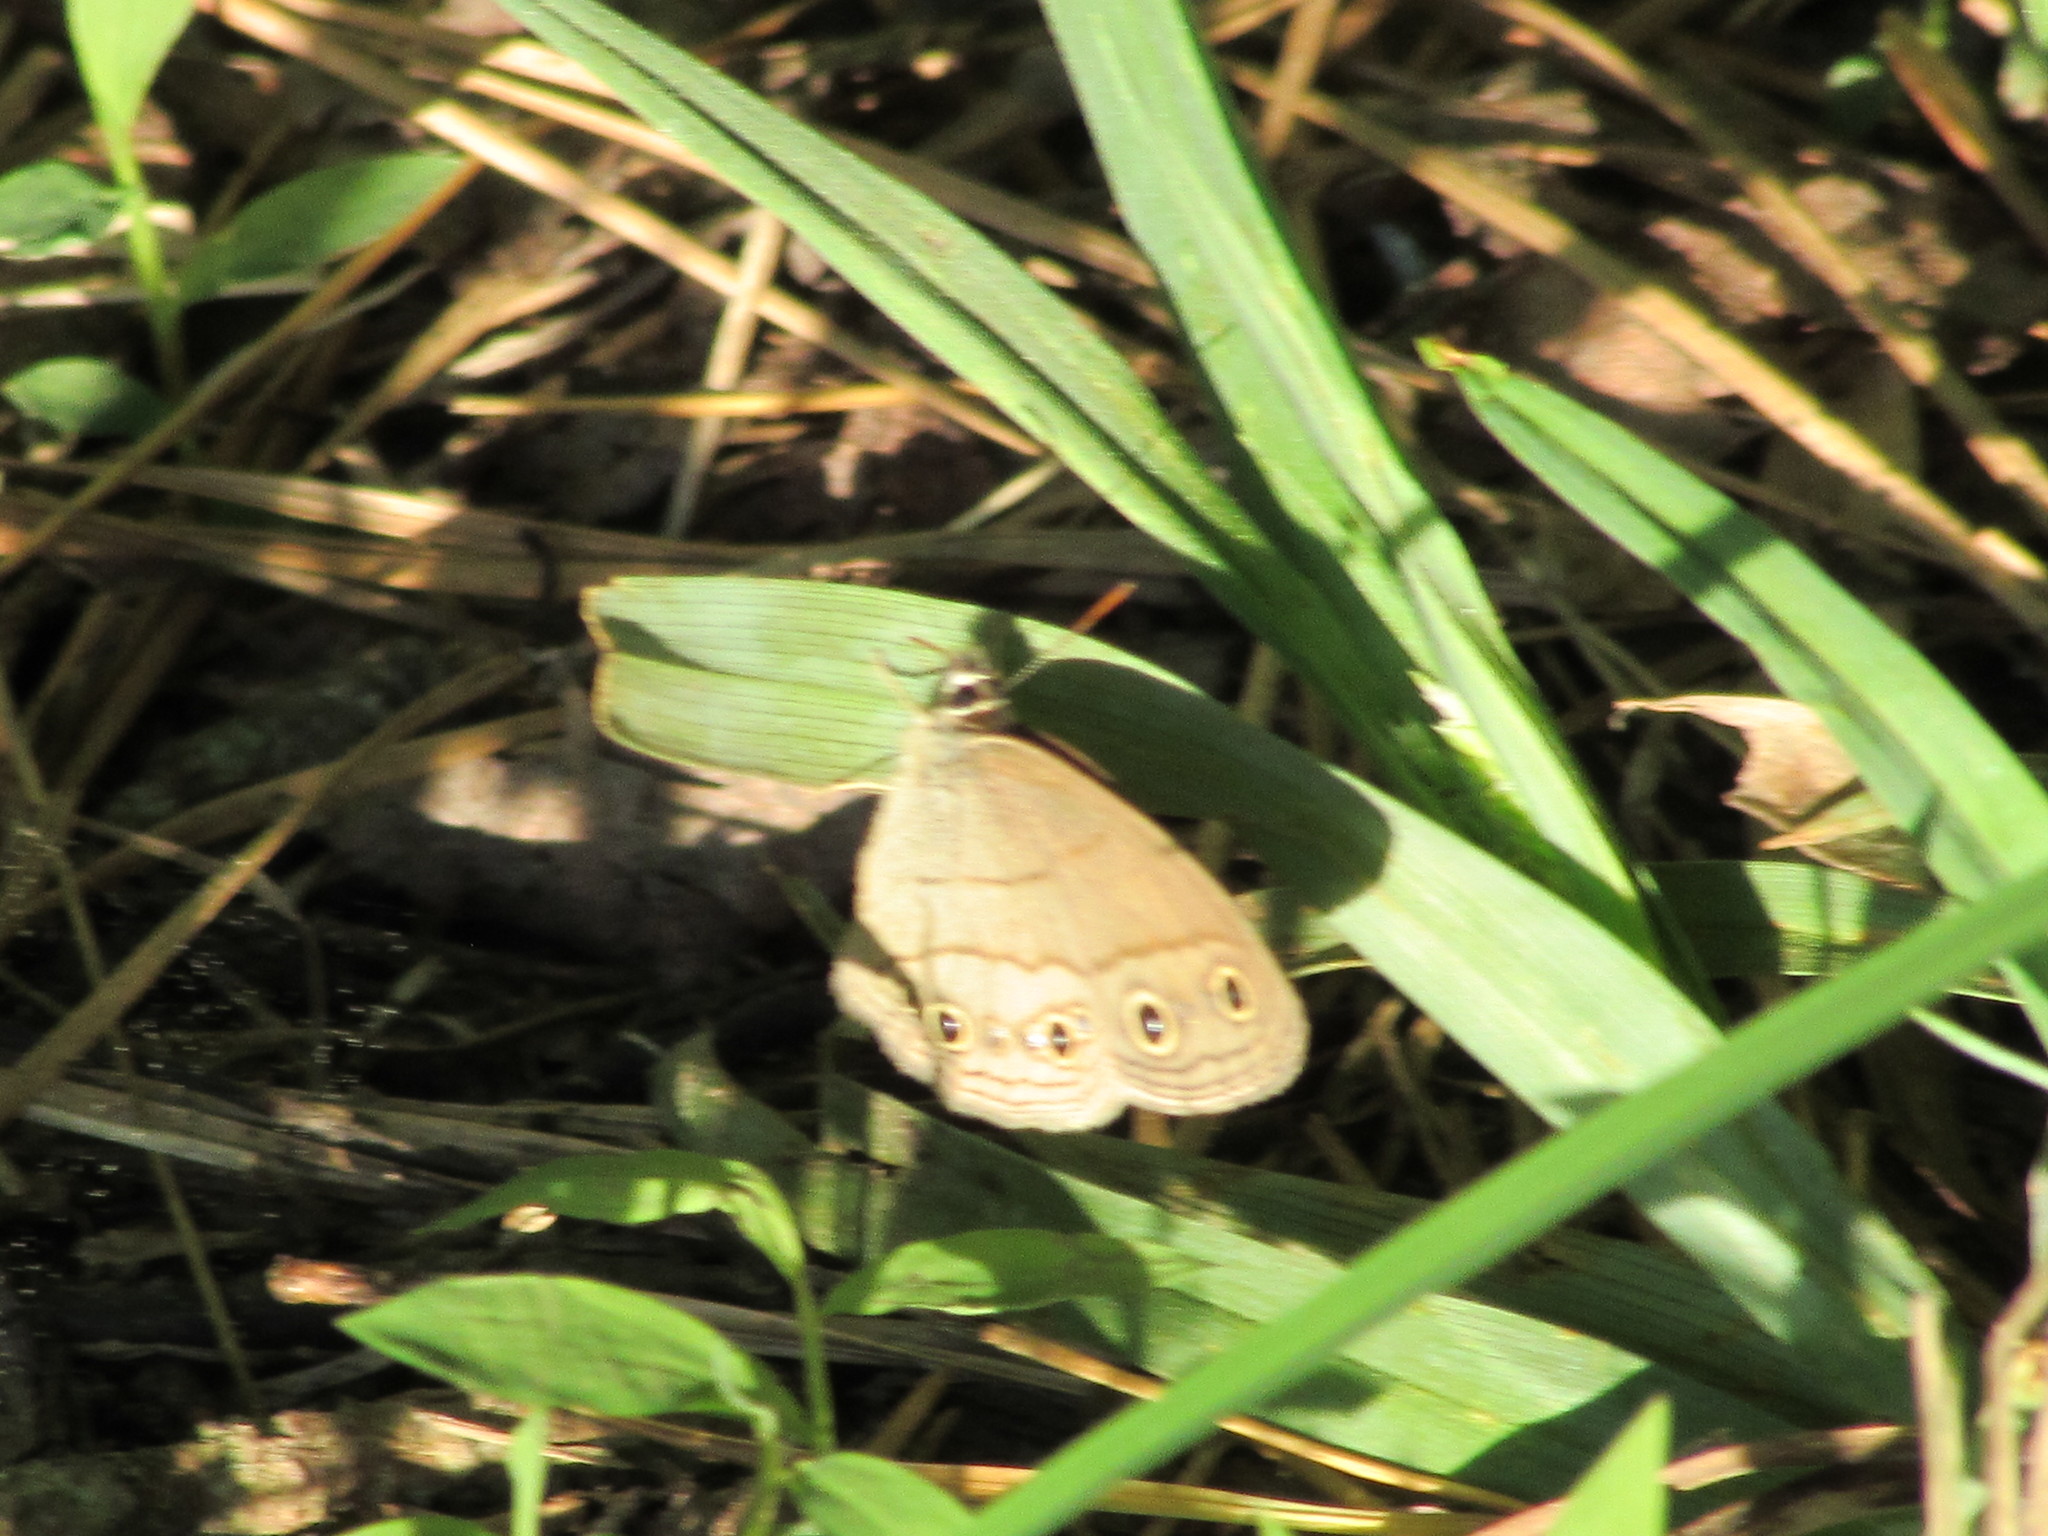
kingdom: Animalia
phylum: Arthropoda
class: Insecta
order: Lepidoptera
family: Nymphalidae
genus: Euptychia
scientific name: Euptychia cymela
